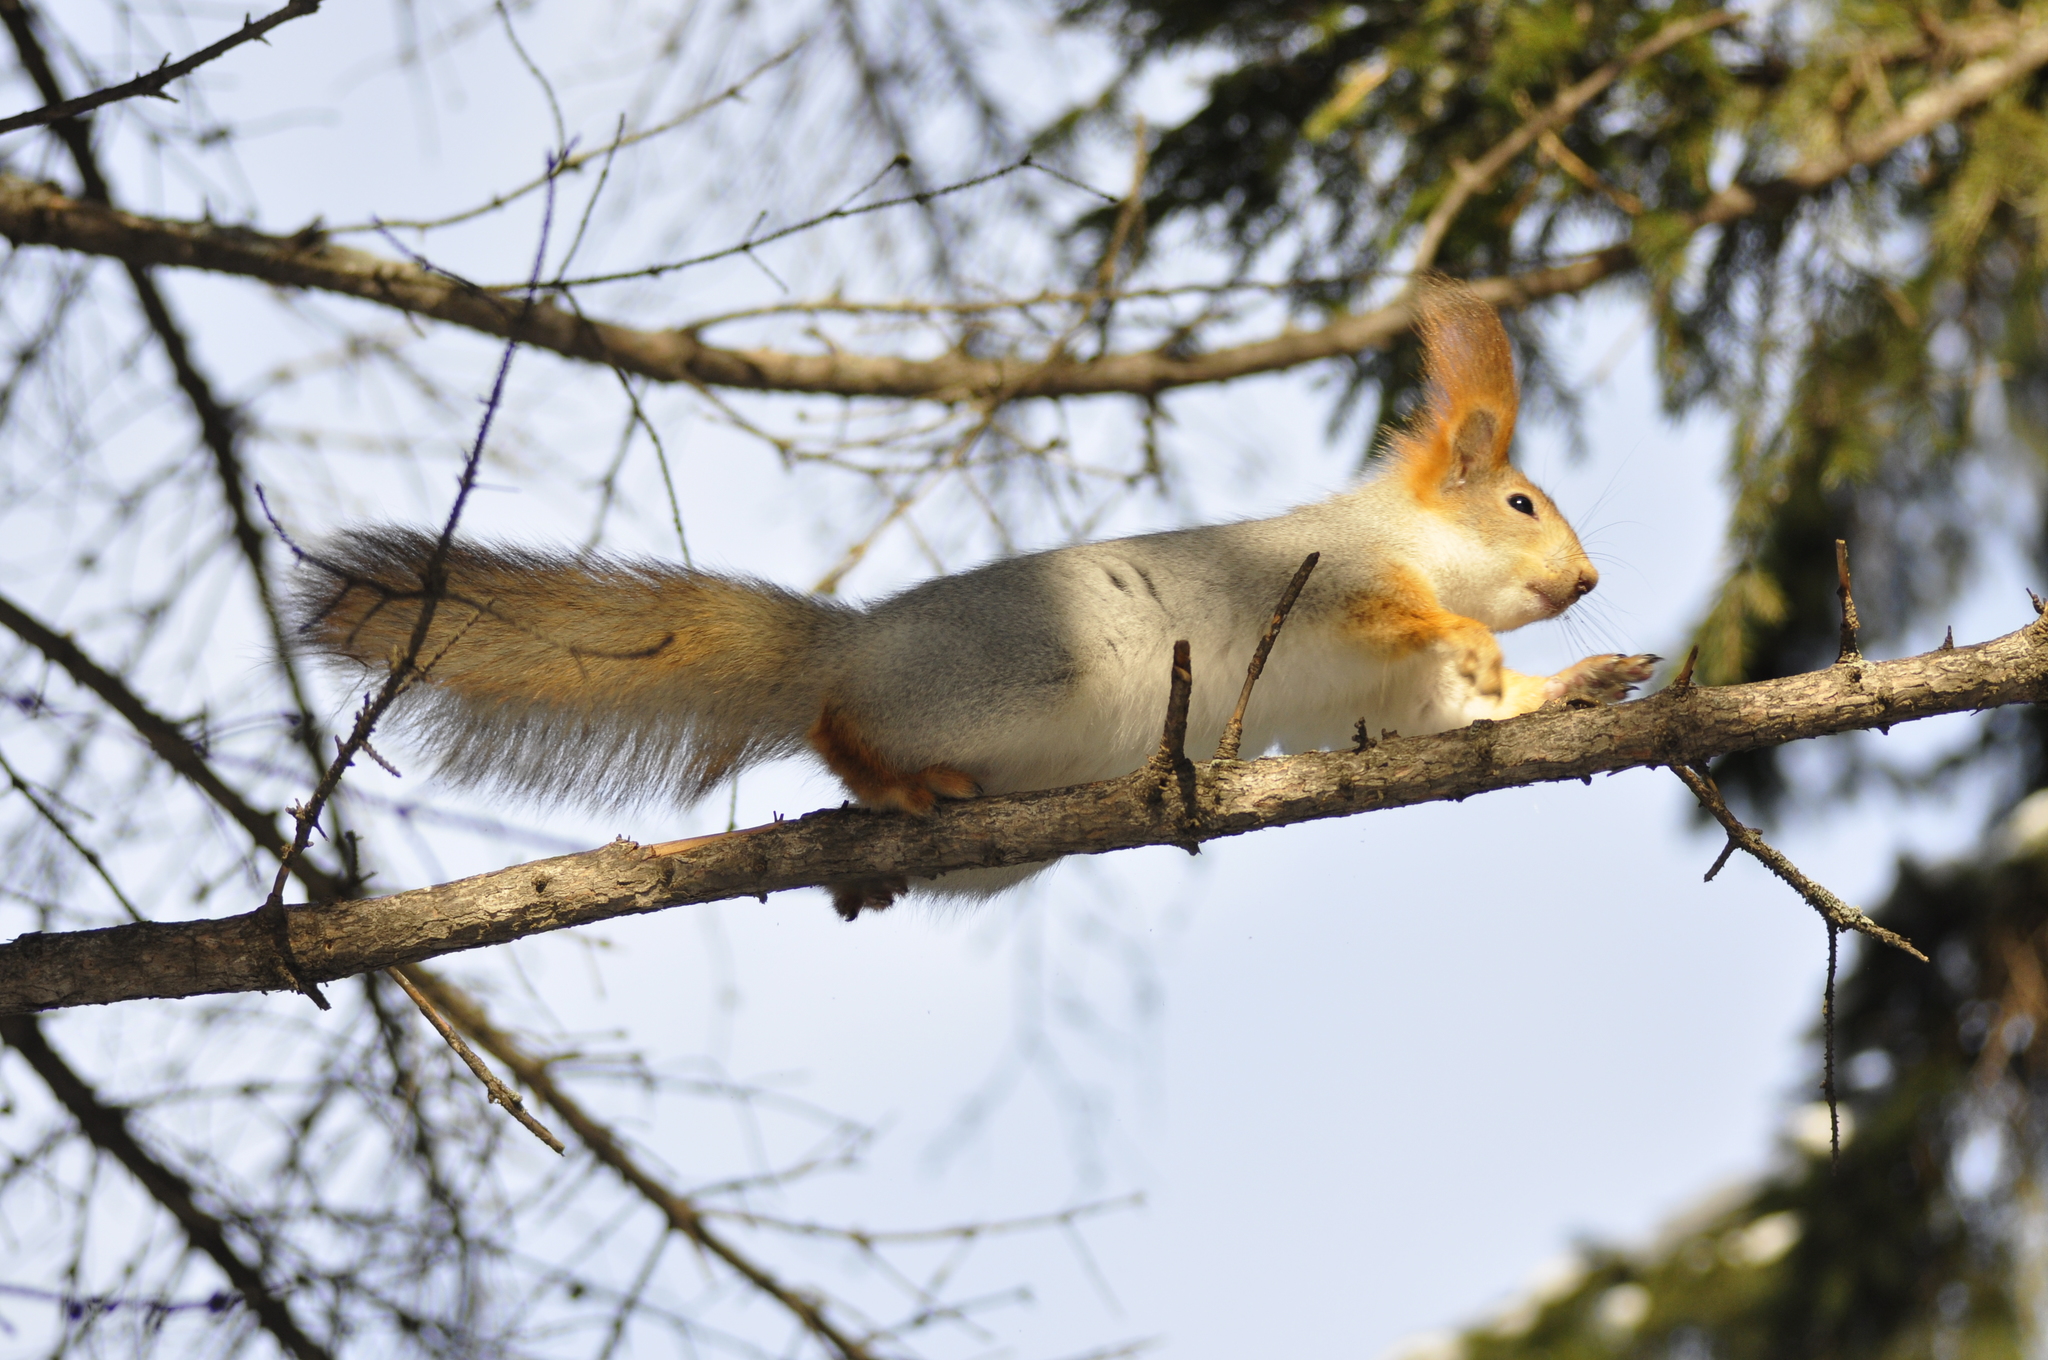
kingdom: Animalia
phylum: Chordata
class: Mammalia
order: Rodentia
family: Sciuridae
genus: Sciurus
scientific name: Sciurus vulgaris
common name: Eurasian red squirrel
